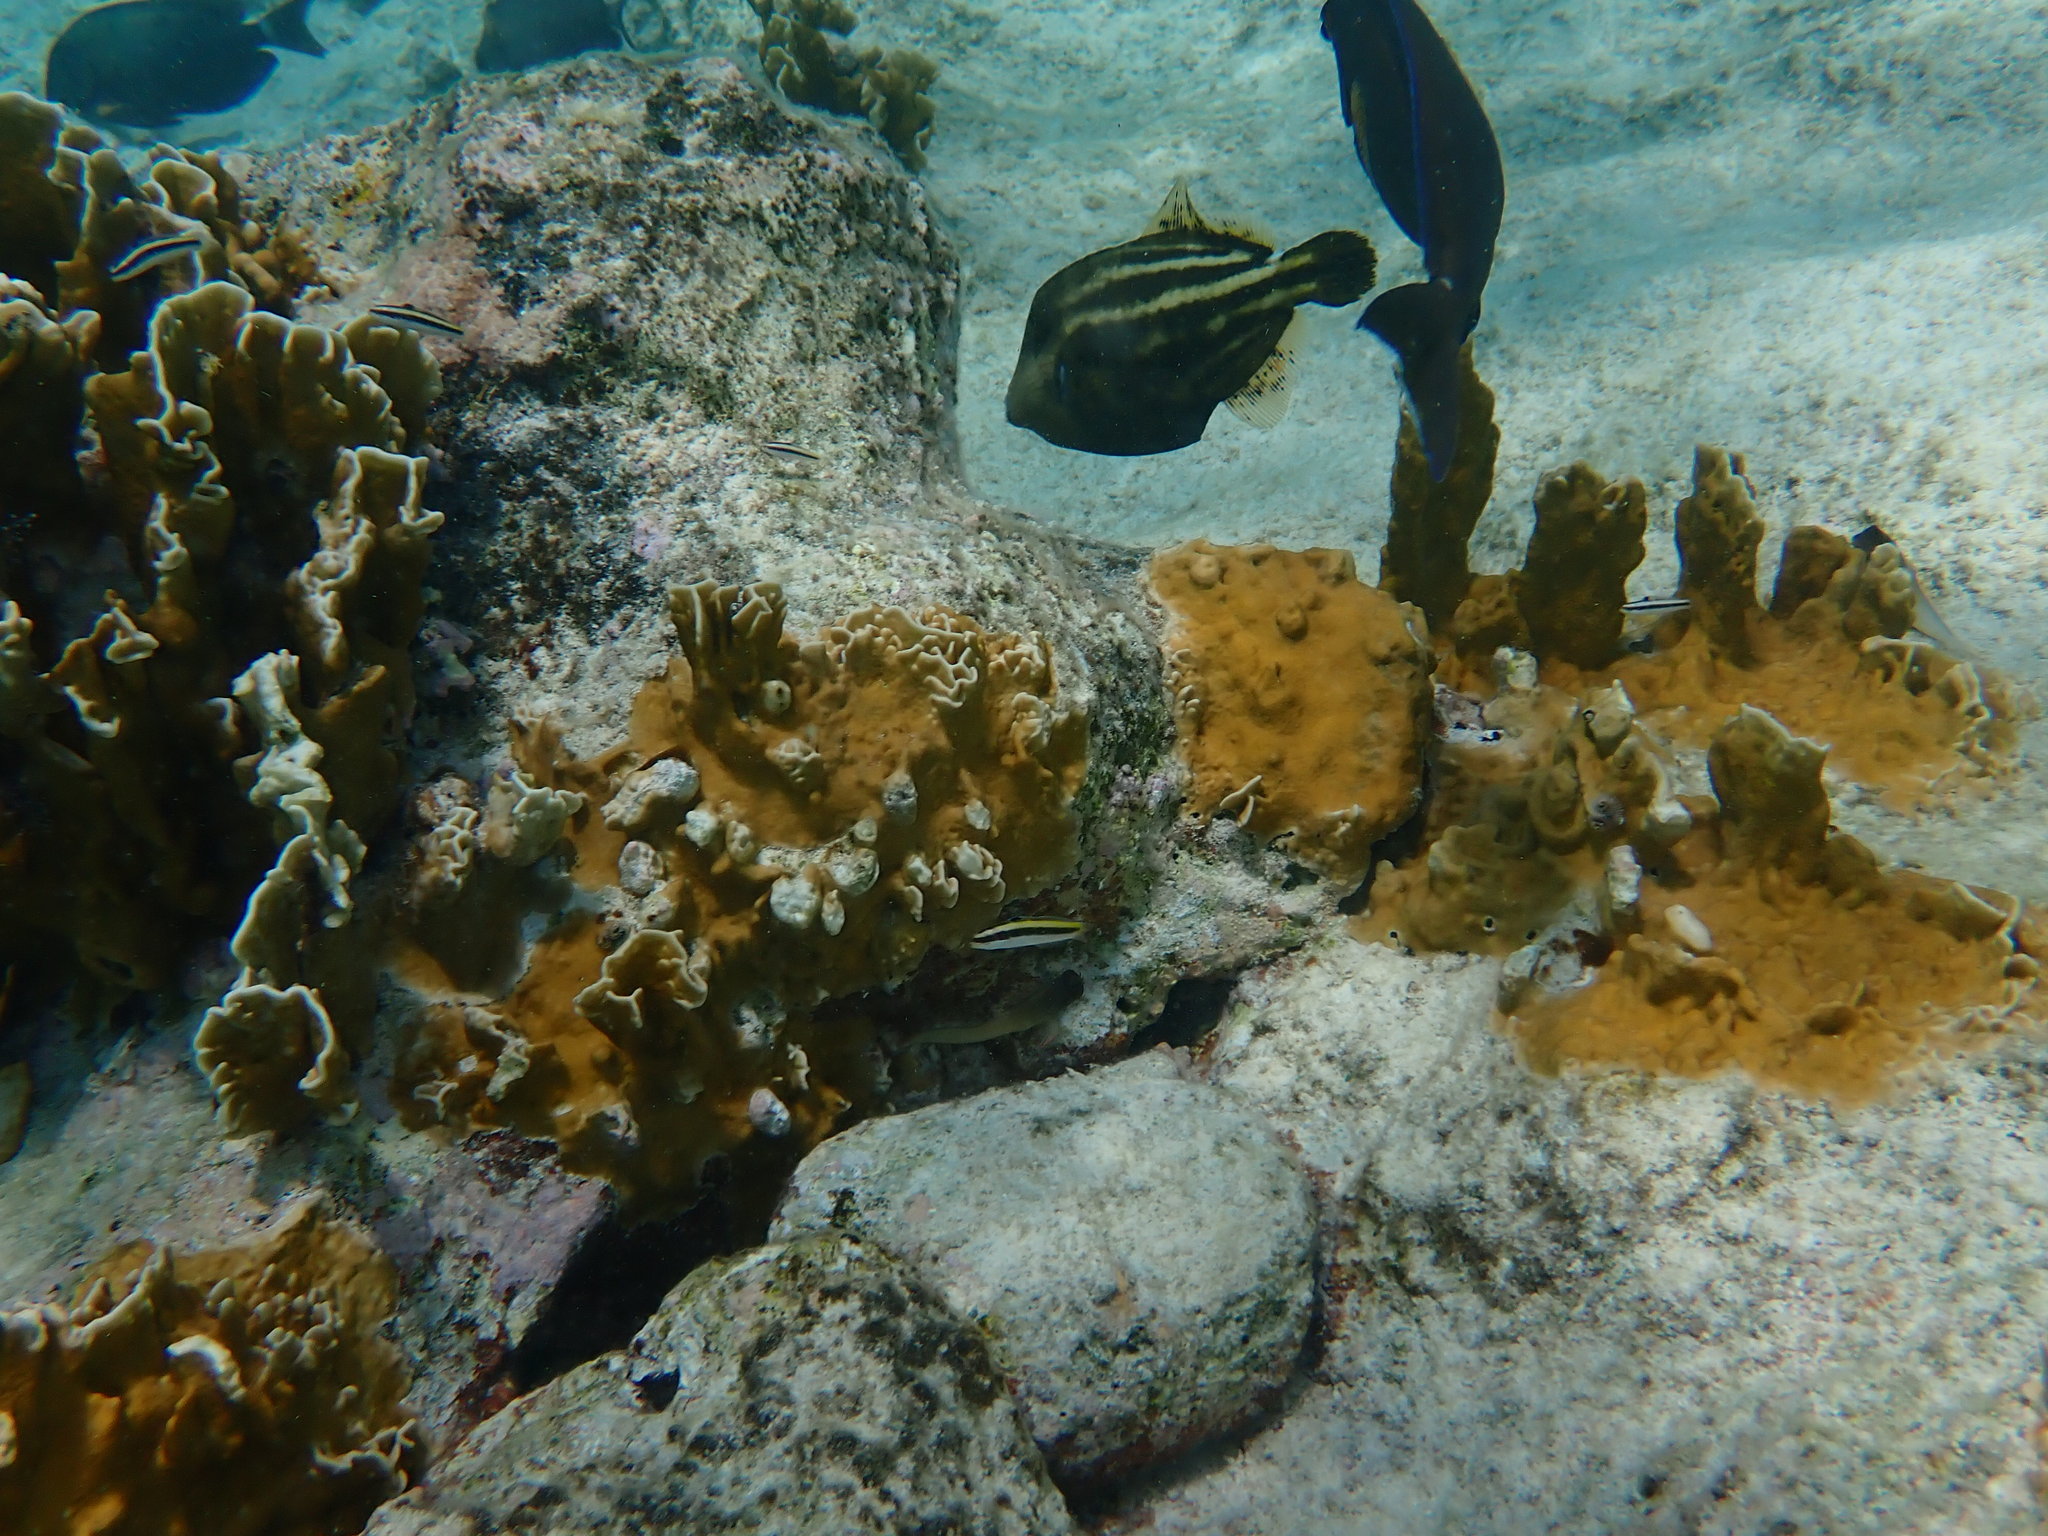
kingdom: Animalia
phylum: Chordata
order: Tetraodontiformes
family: Monacanthidae
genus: Cantherhines
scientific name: Cantherhines pullus
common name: Orangespotted filefish
